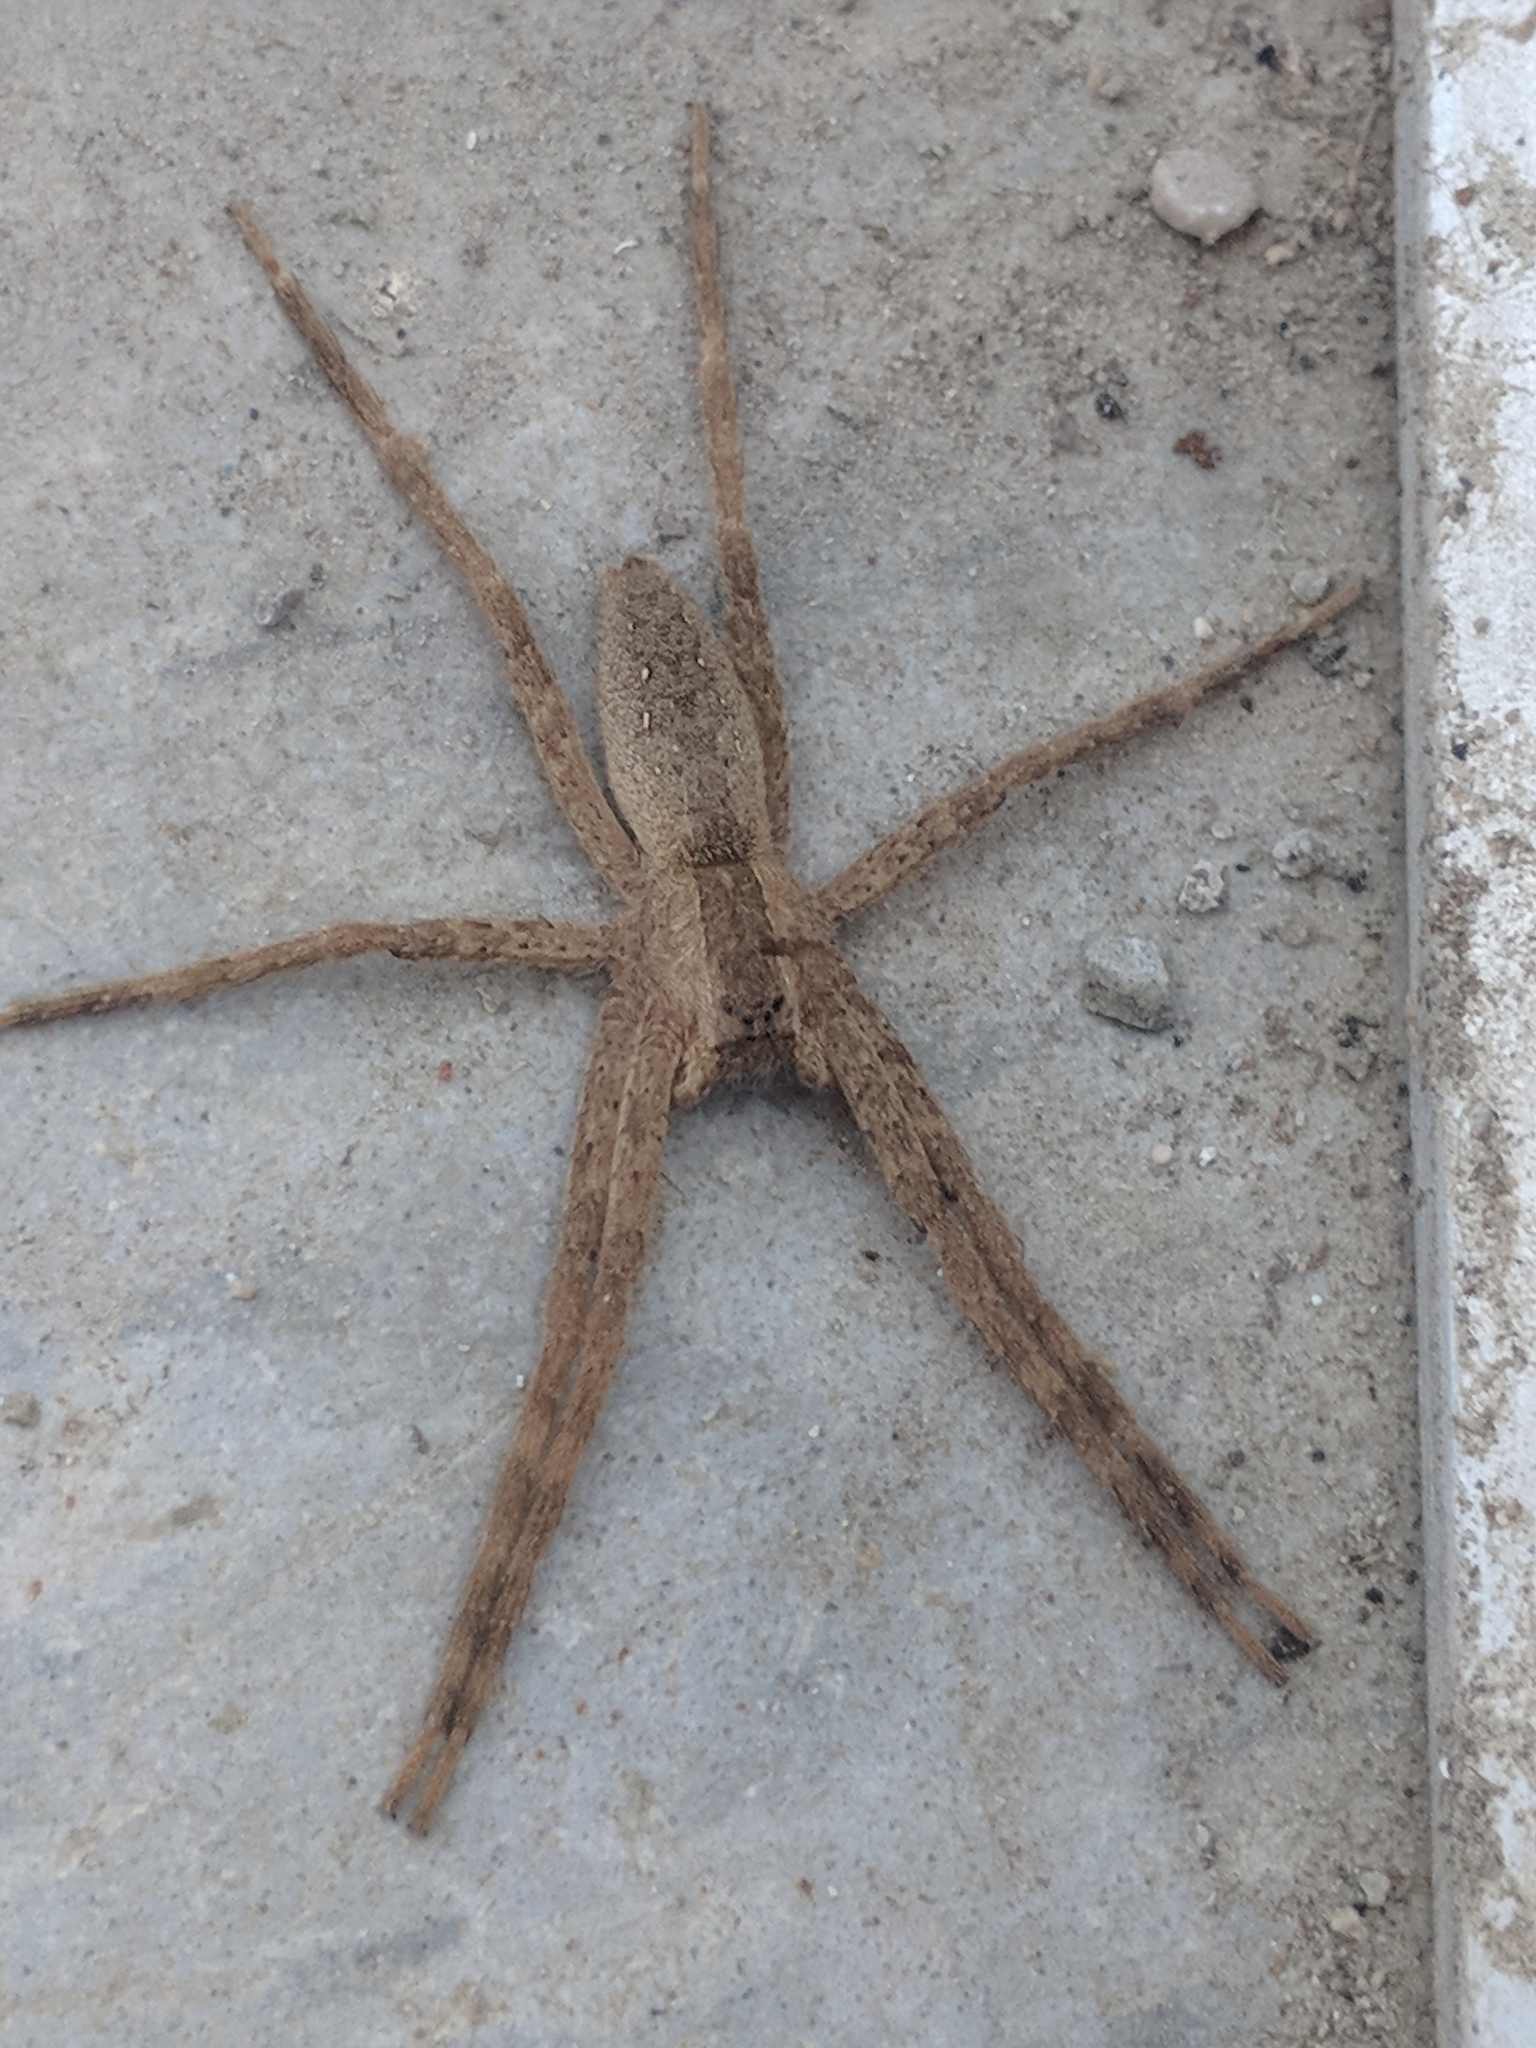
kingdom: Animalia
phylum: Arthropoda
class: Arachnida
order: Araneae
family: Pisauridae
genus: Pisaurina
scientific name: Pisaurina mira
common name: American nursery web spider
